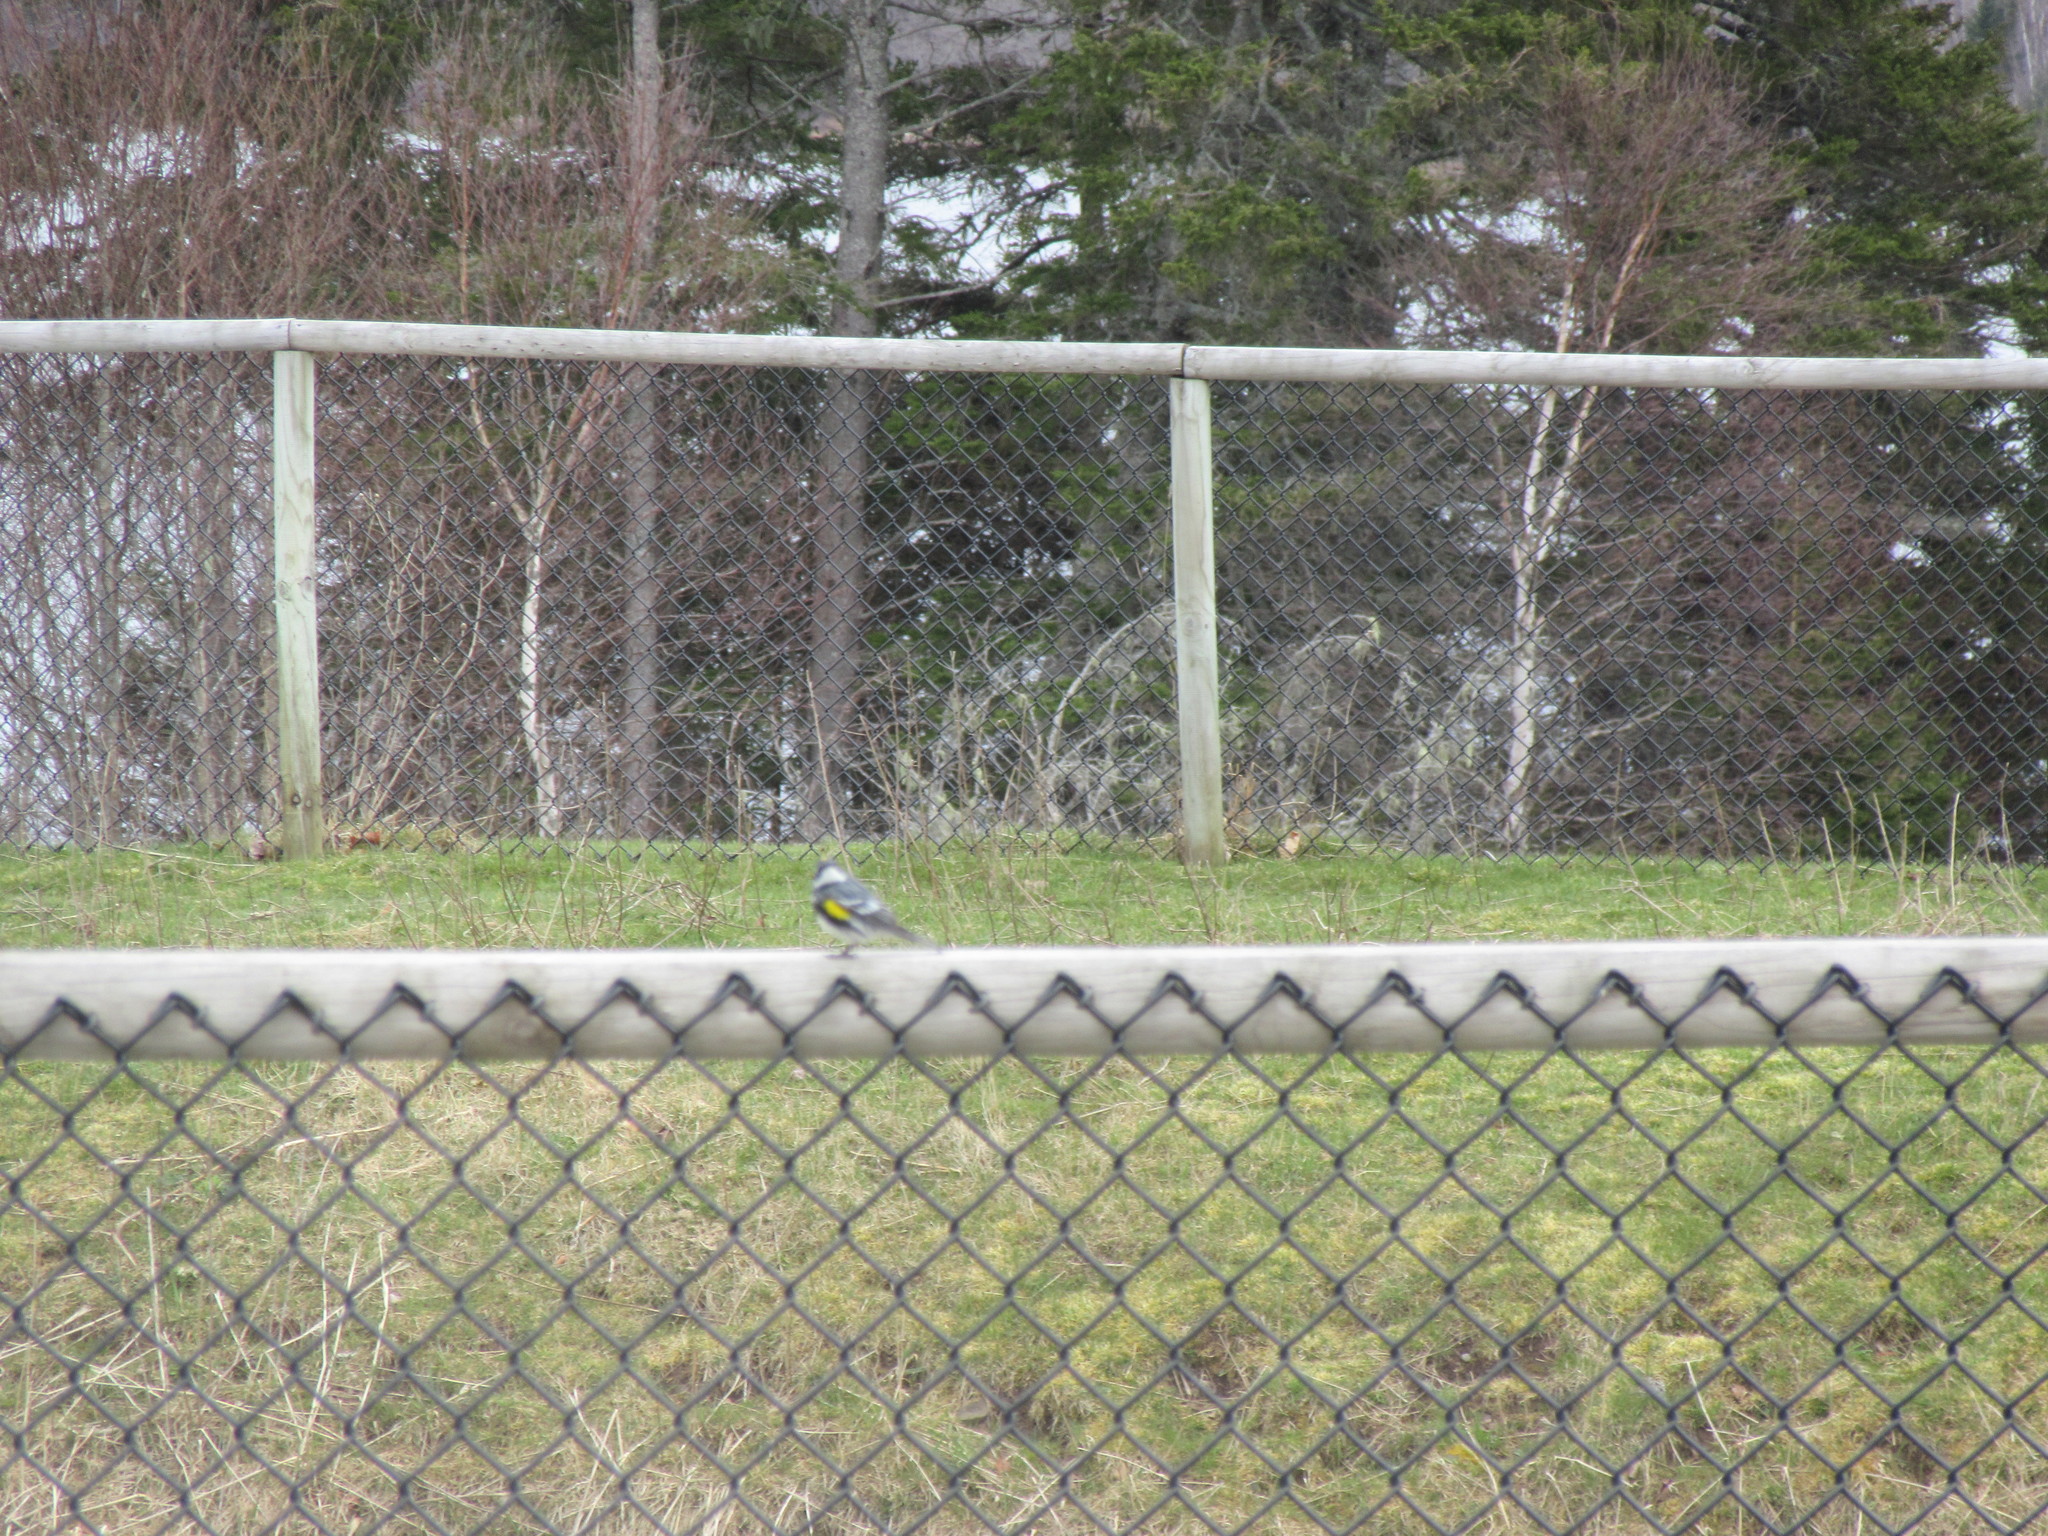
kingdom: Animalia
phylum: Chordata
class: Aves
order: Passeriformes
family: Parulidae
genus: Setophaga
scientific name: Setophaga coronata
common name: Myrtle warbler
